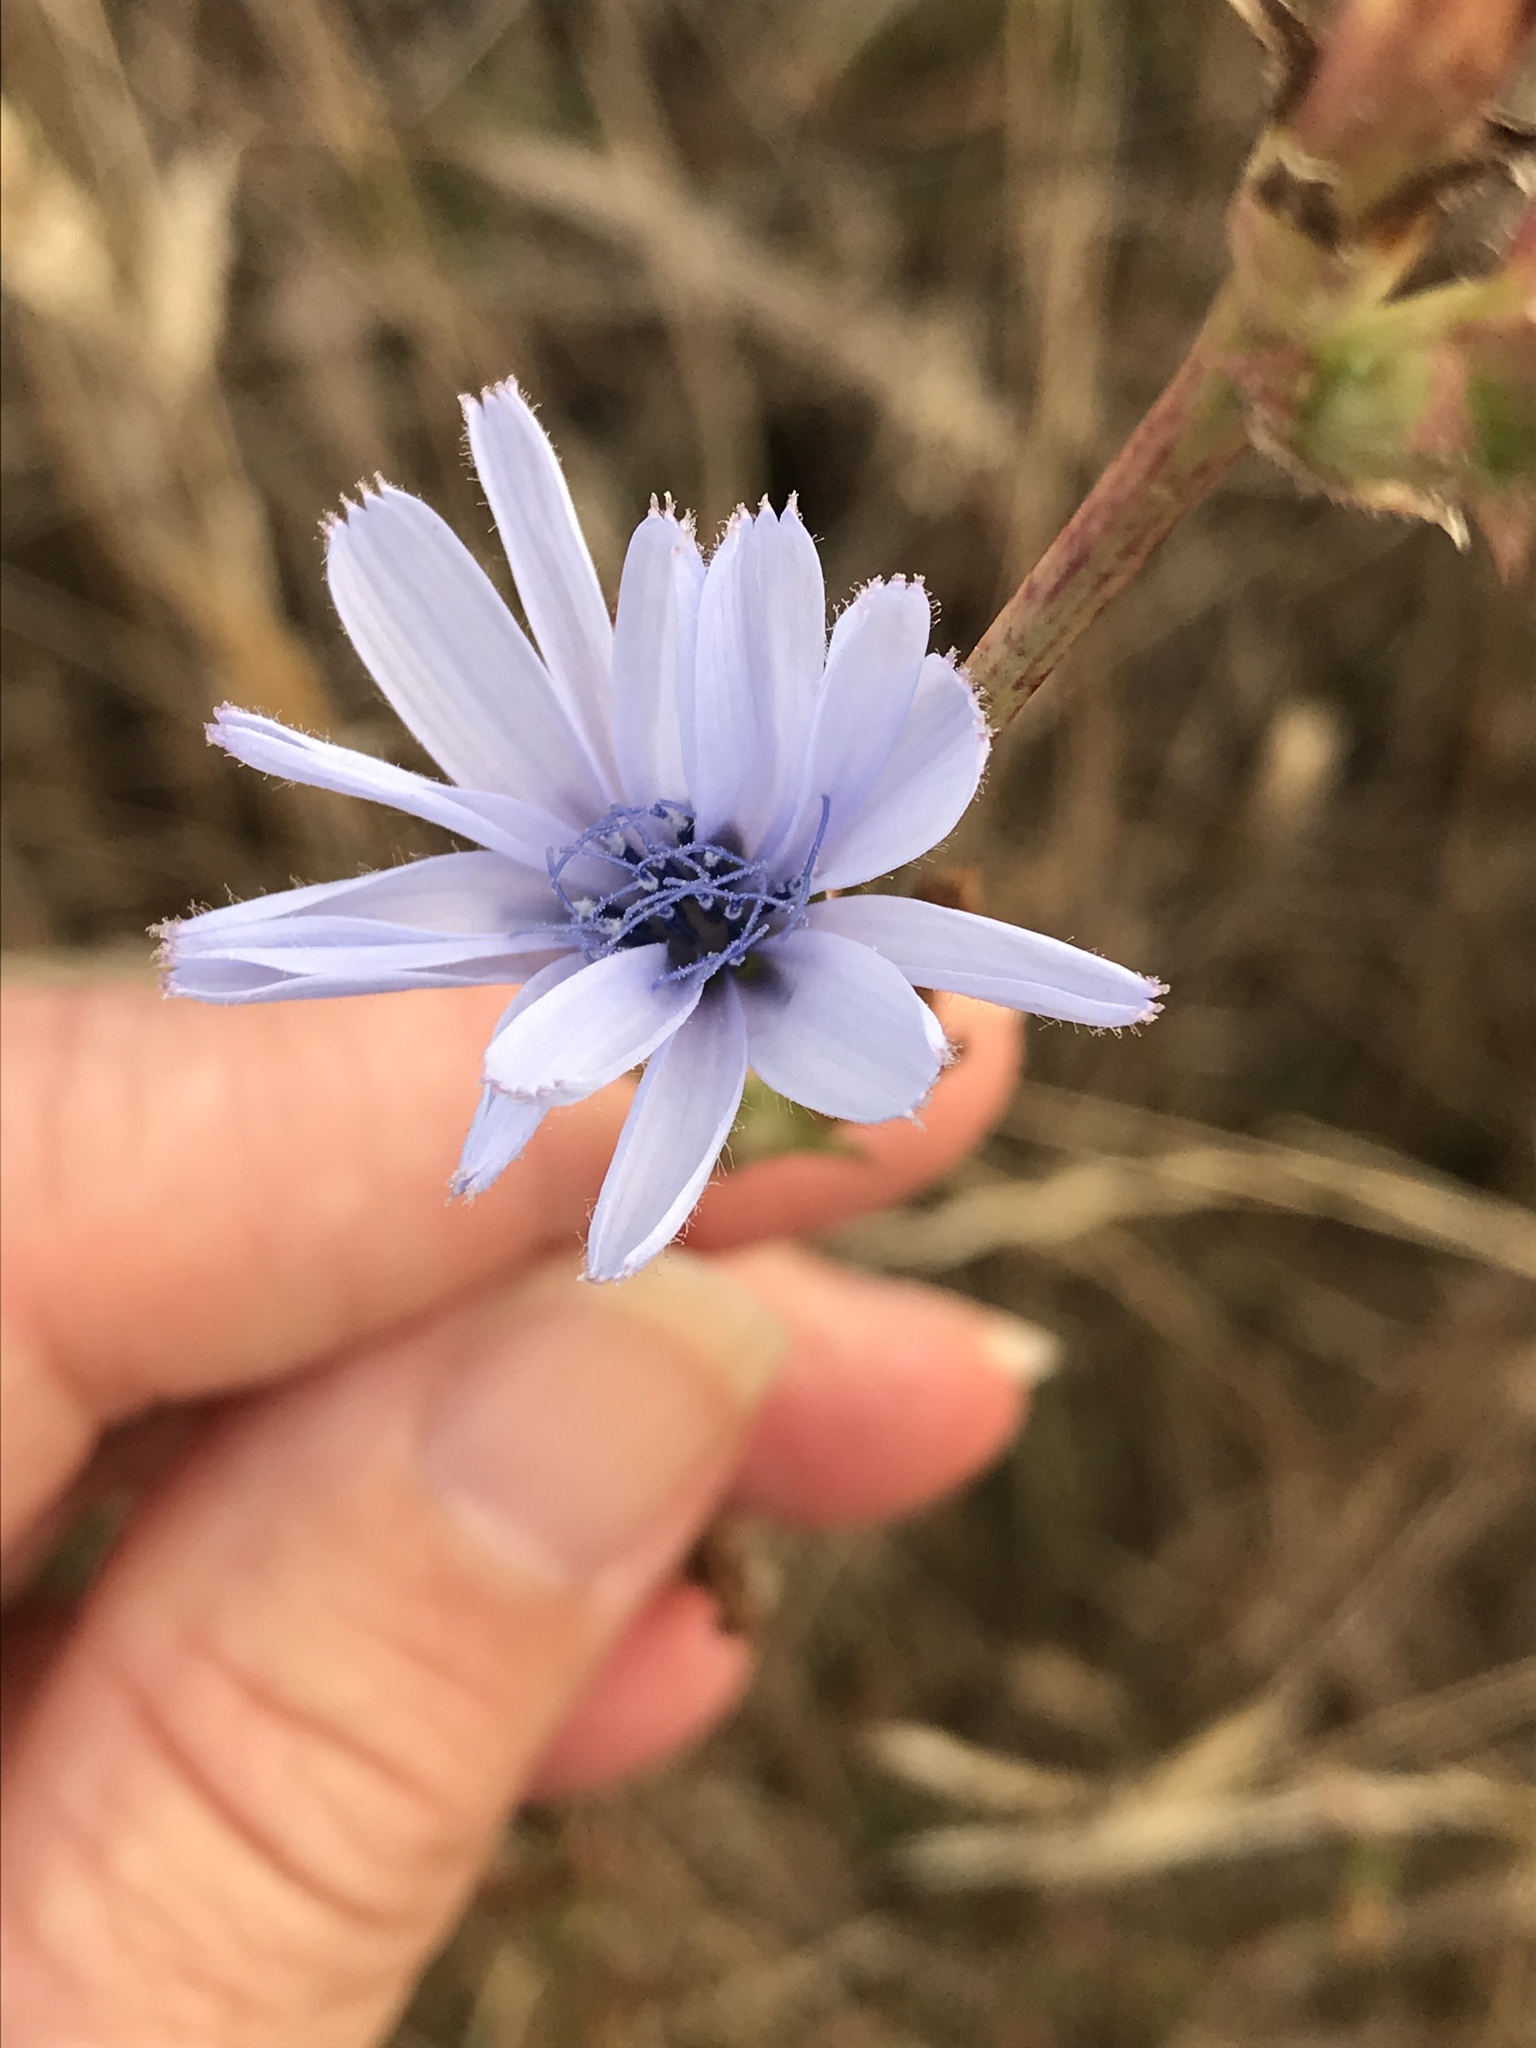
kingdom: Plantae
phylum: Tracheophyta
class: Magnoliopsida
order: Asterales
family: Asteraceae
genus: Cichorium
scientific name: Cichorium intybus
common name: Chicory
